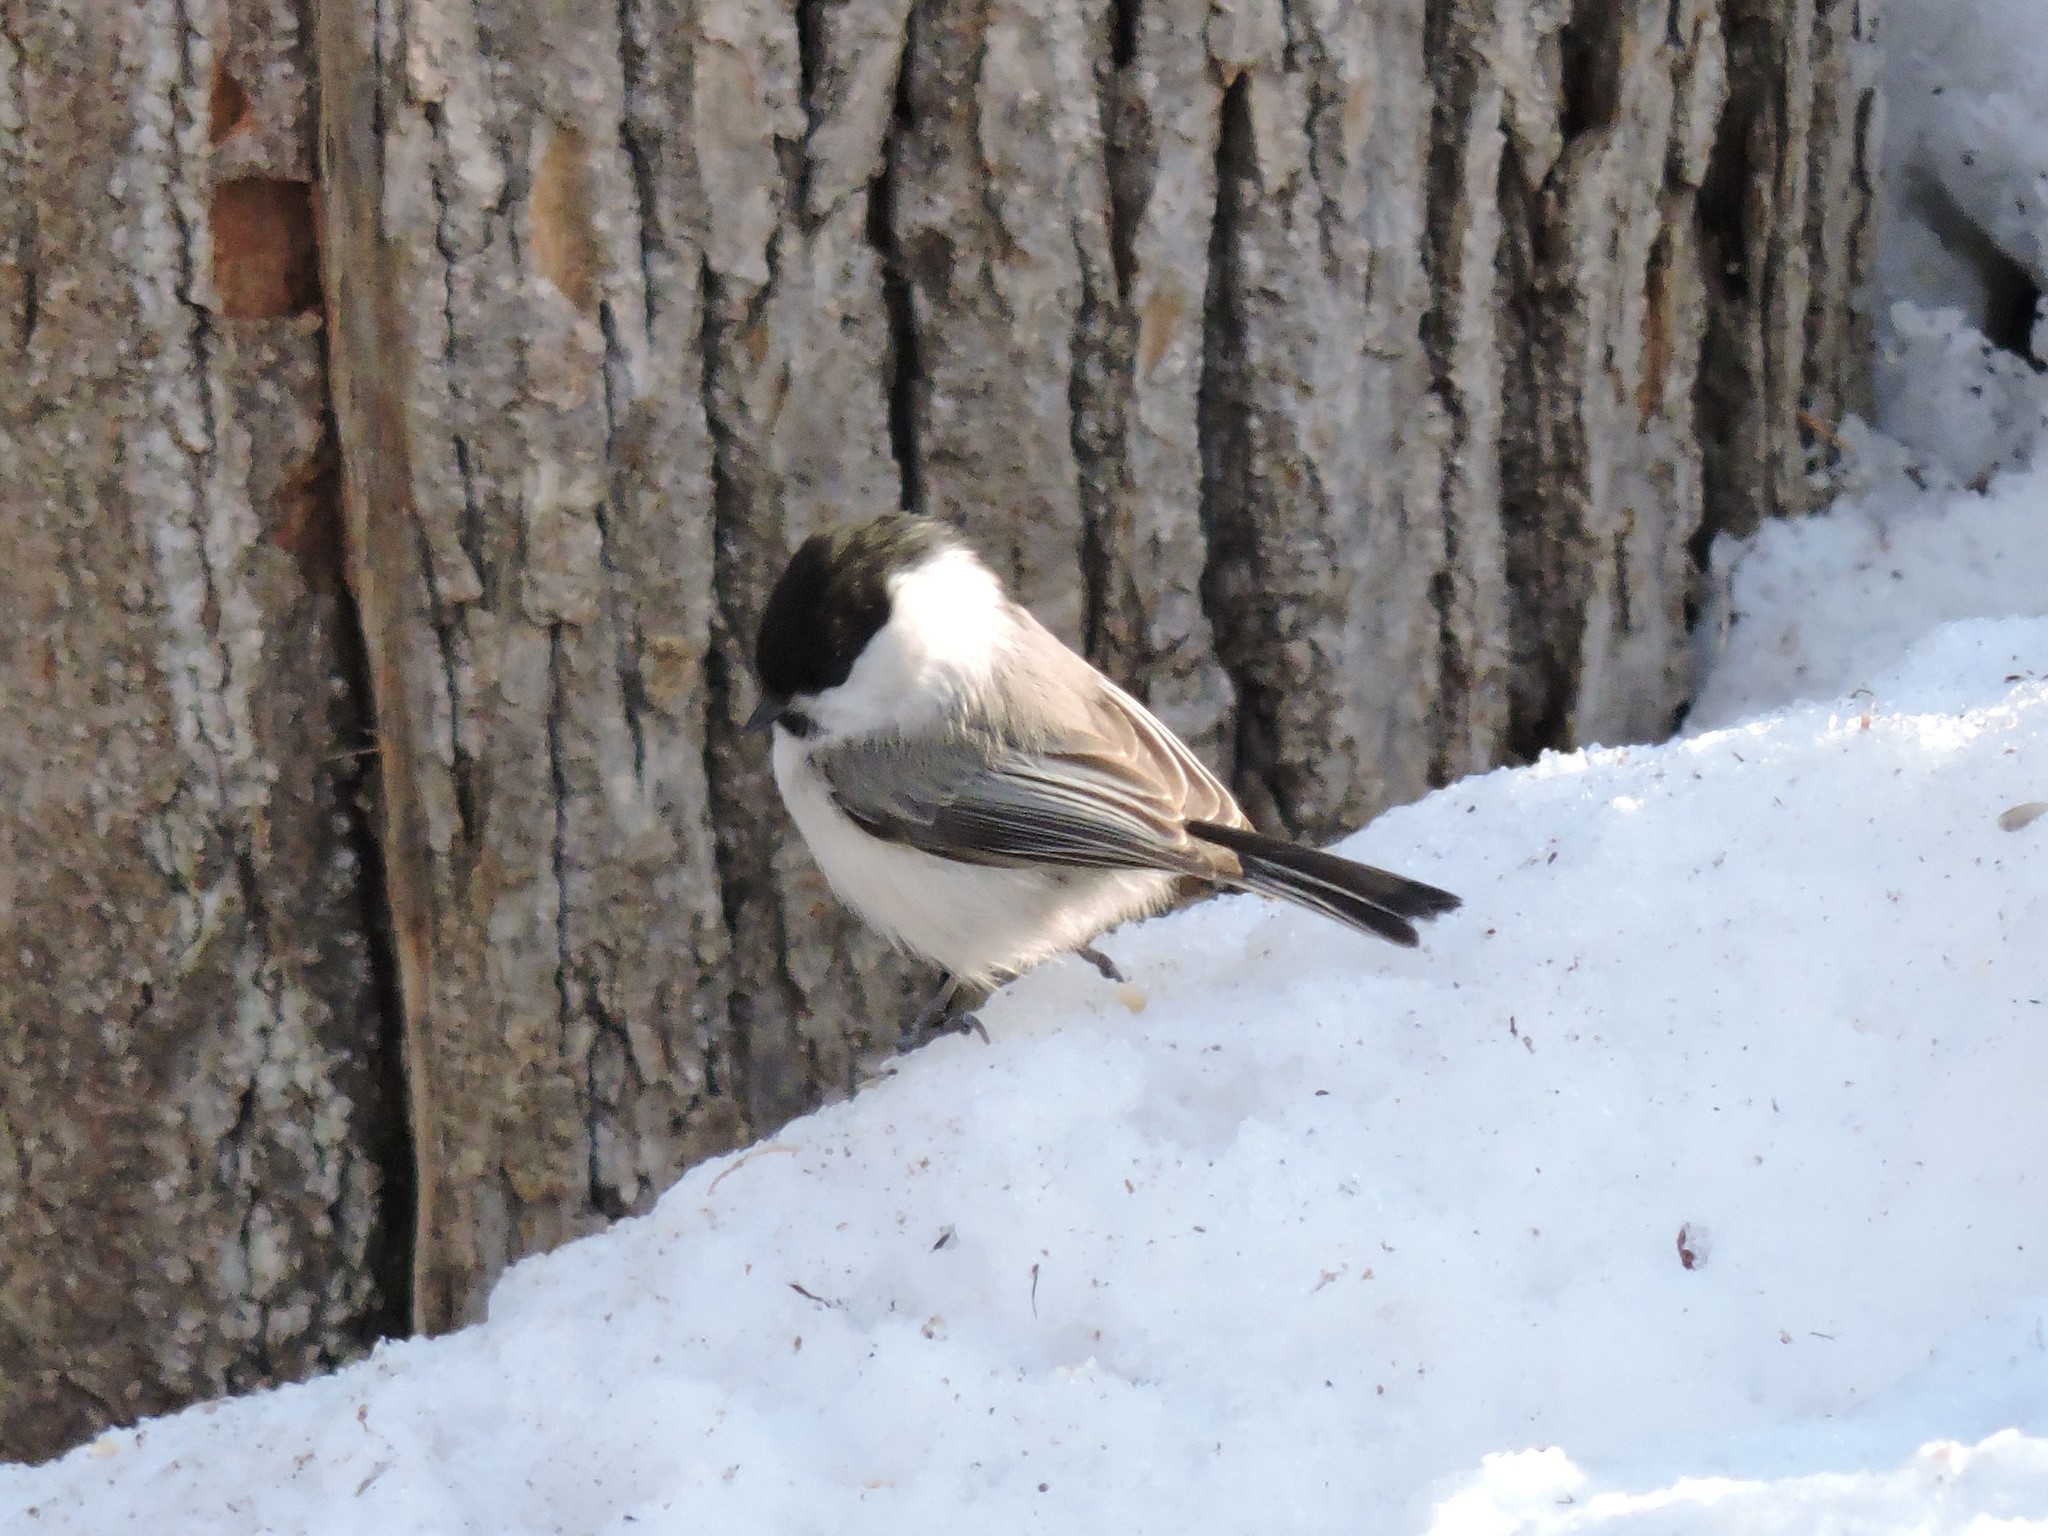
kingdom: Animalia
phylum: Chordata
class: Aves
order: Passeriformes
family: Paridae
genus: Poecile
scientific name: Poecile montanus
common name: Willow tit
